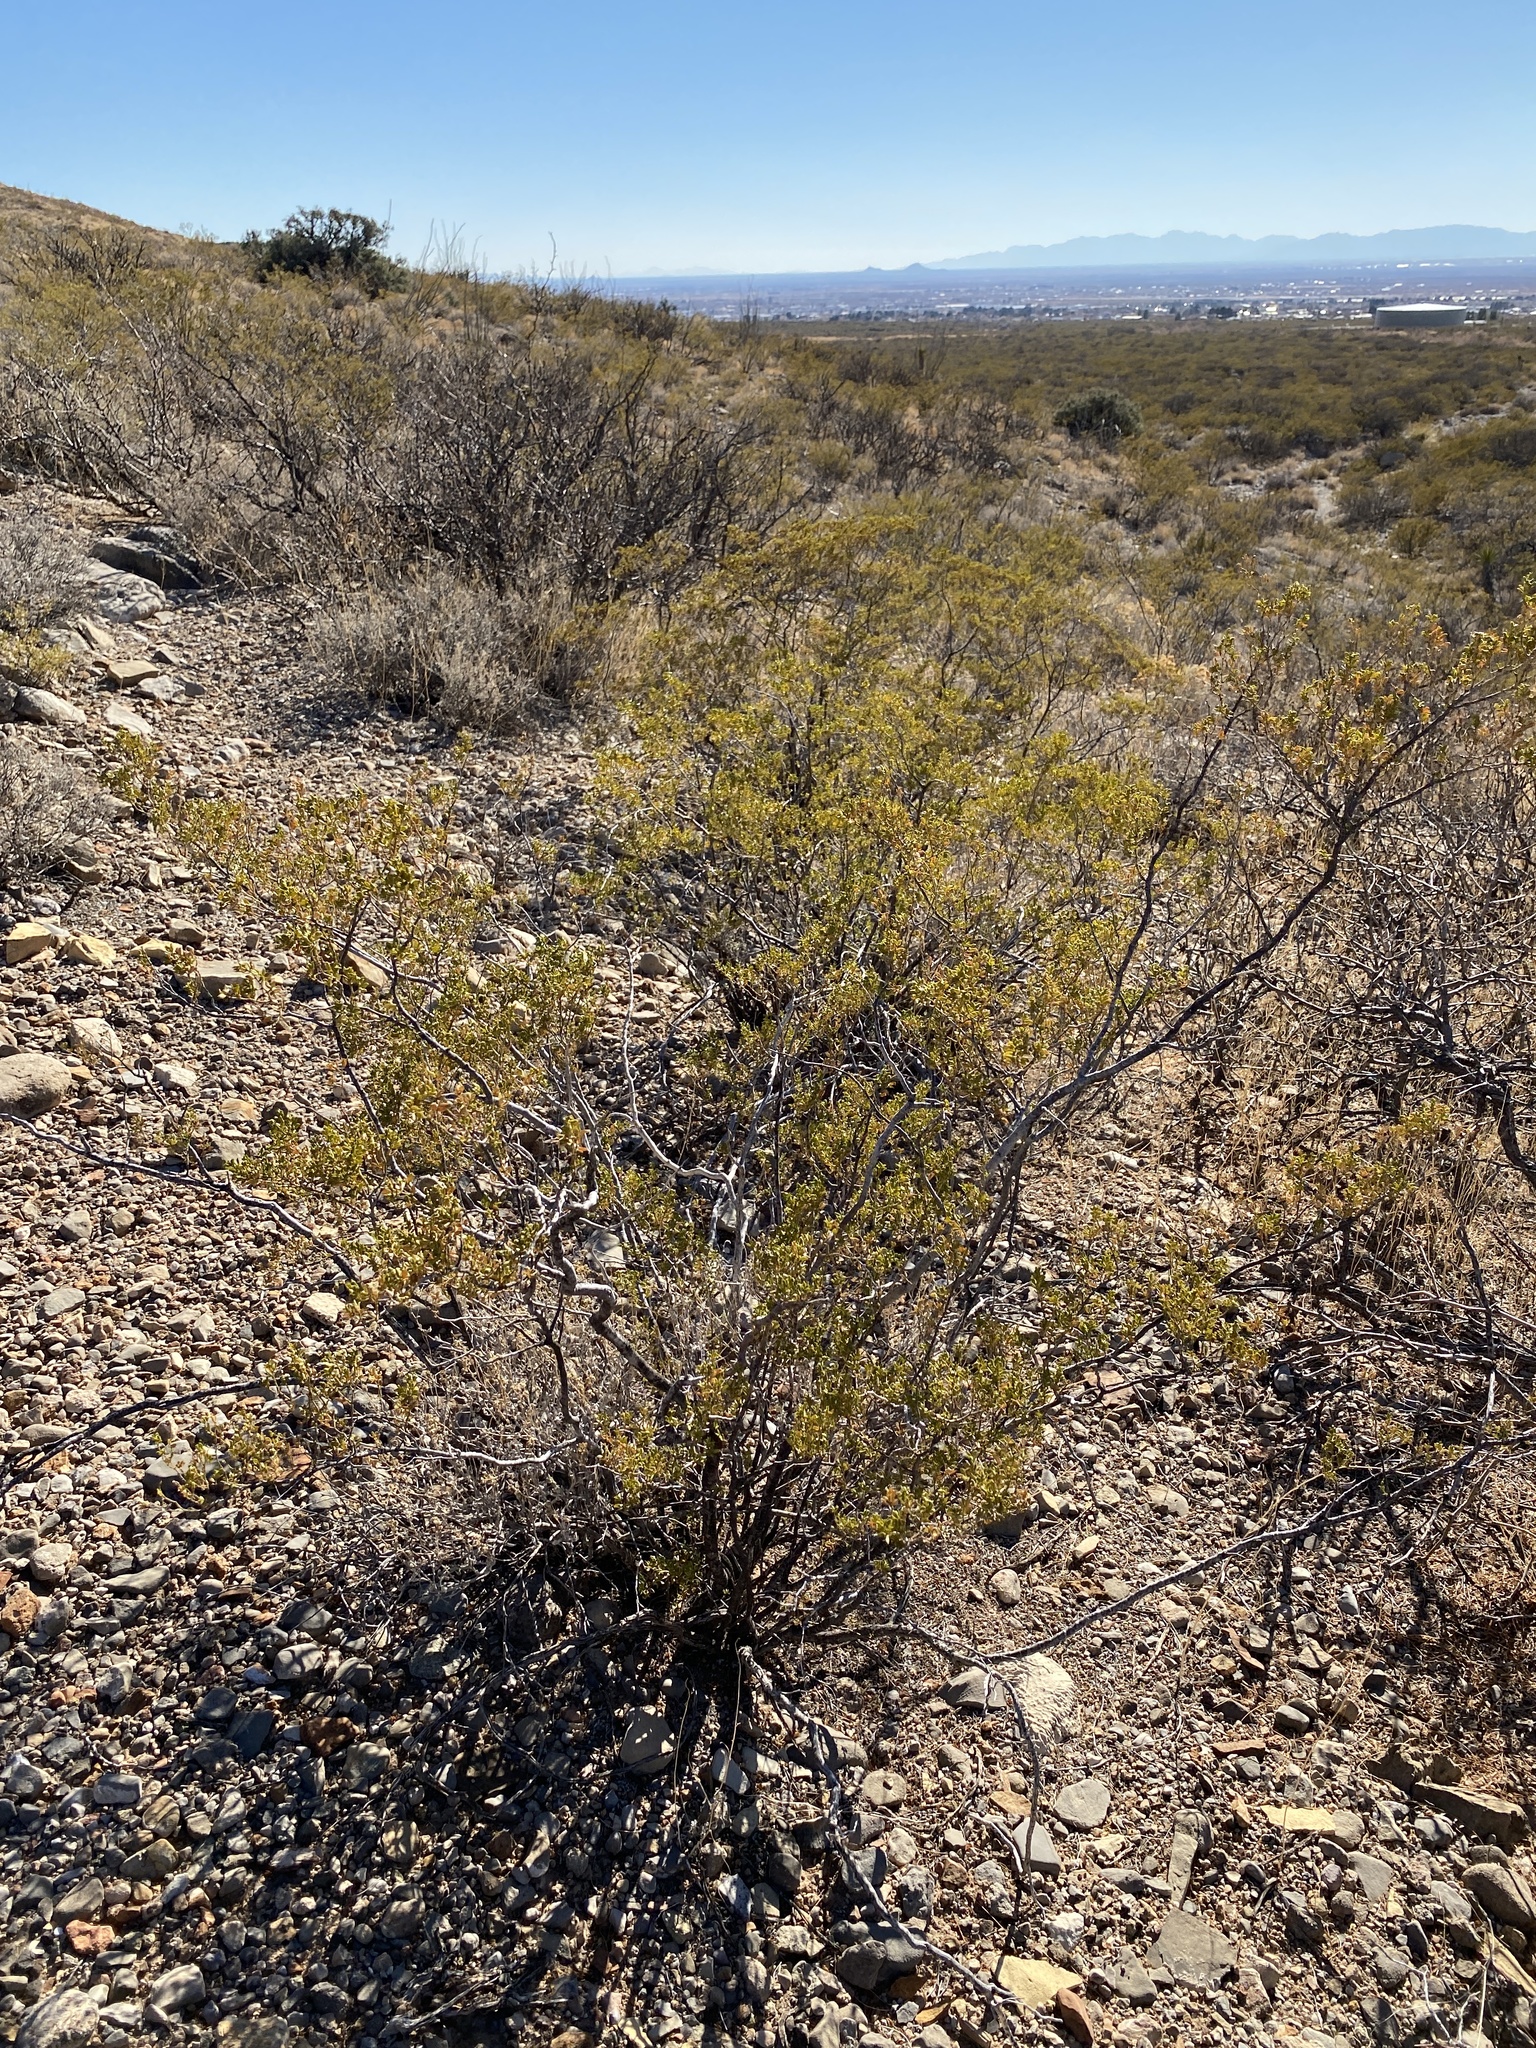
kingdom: Plantae
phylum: Tracheophyta
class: Magnoliopsida
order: Zygophyllales
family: Zygophyllaceae
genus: Larrea
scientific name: Larrea tridentata
